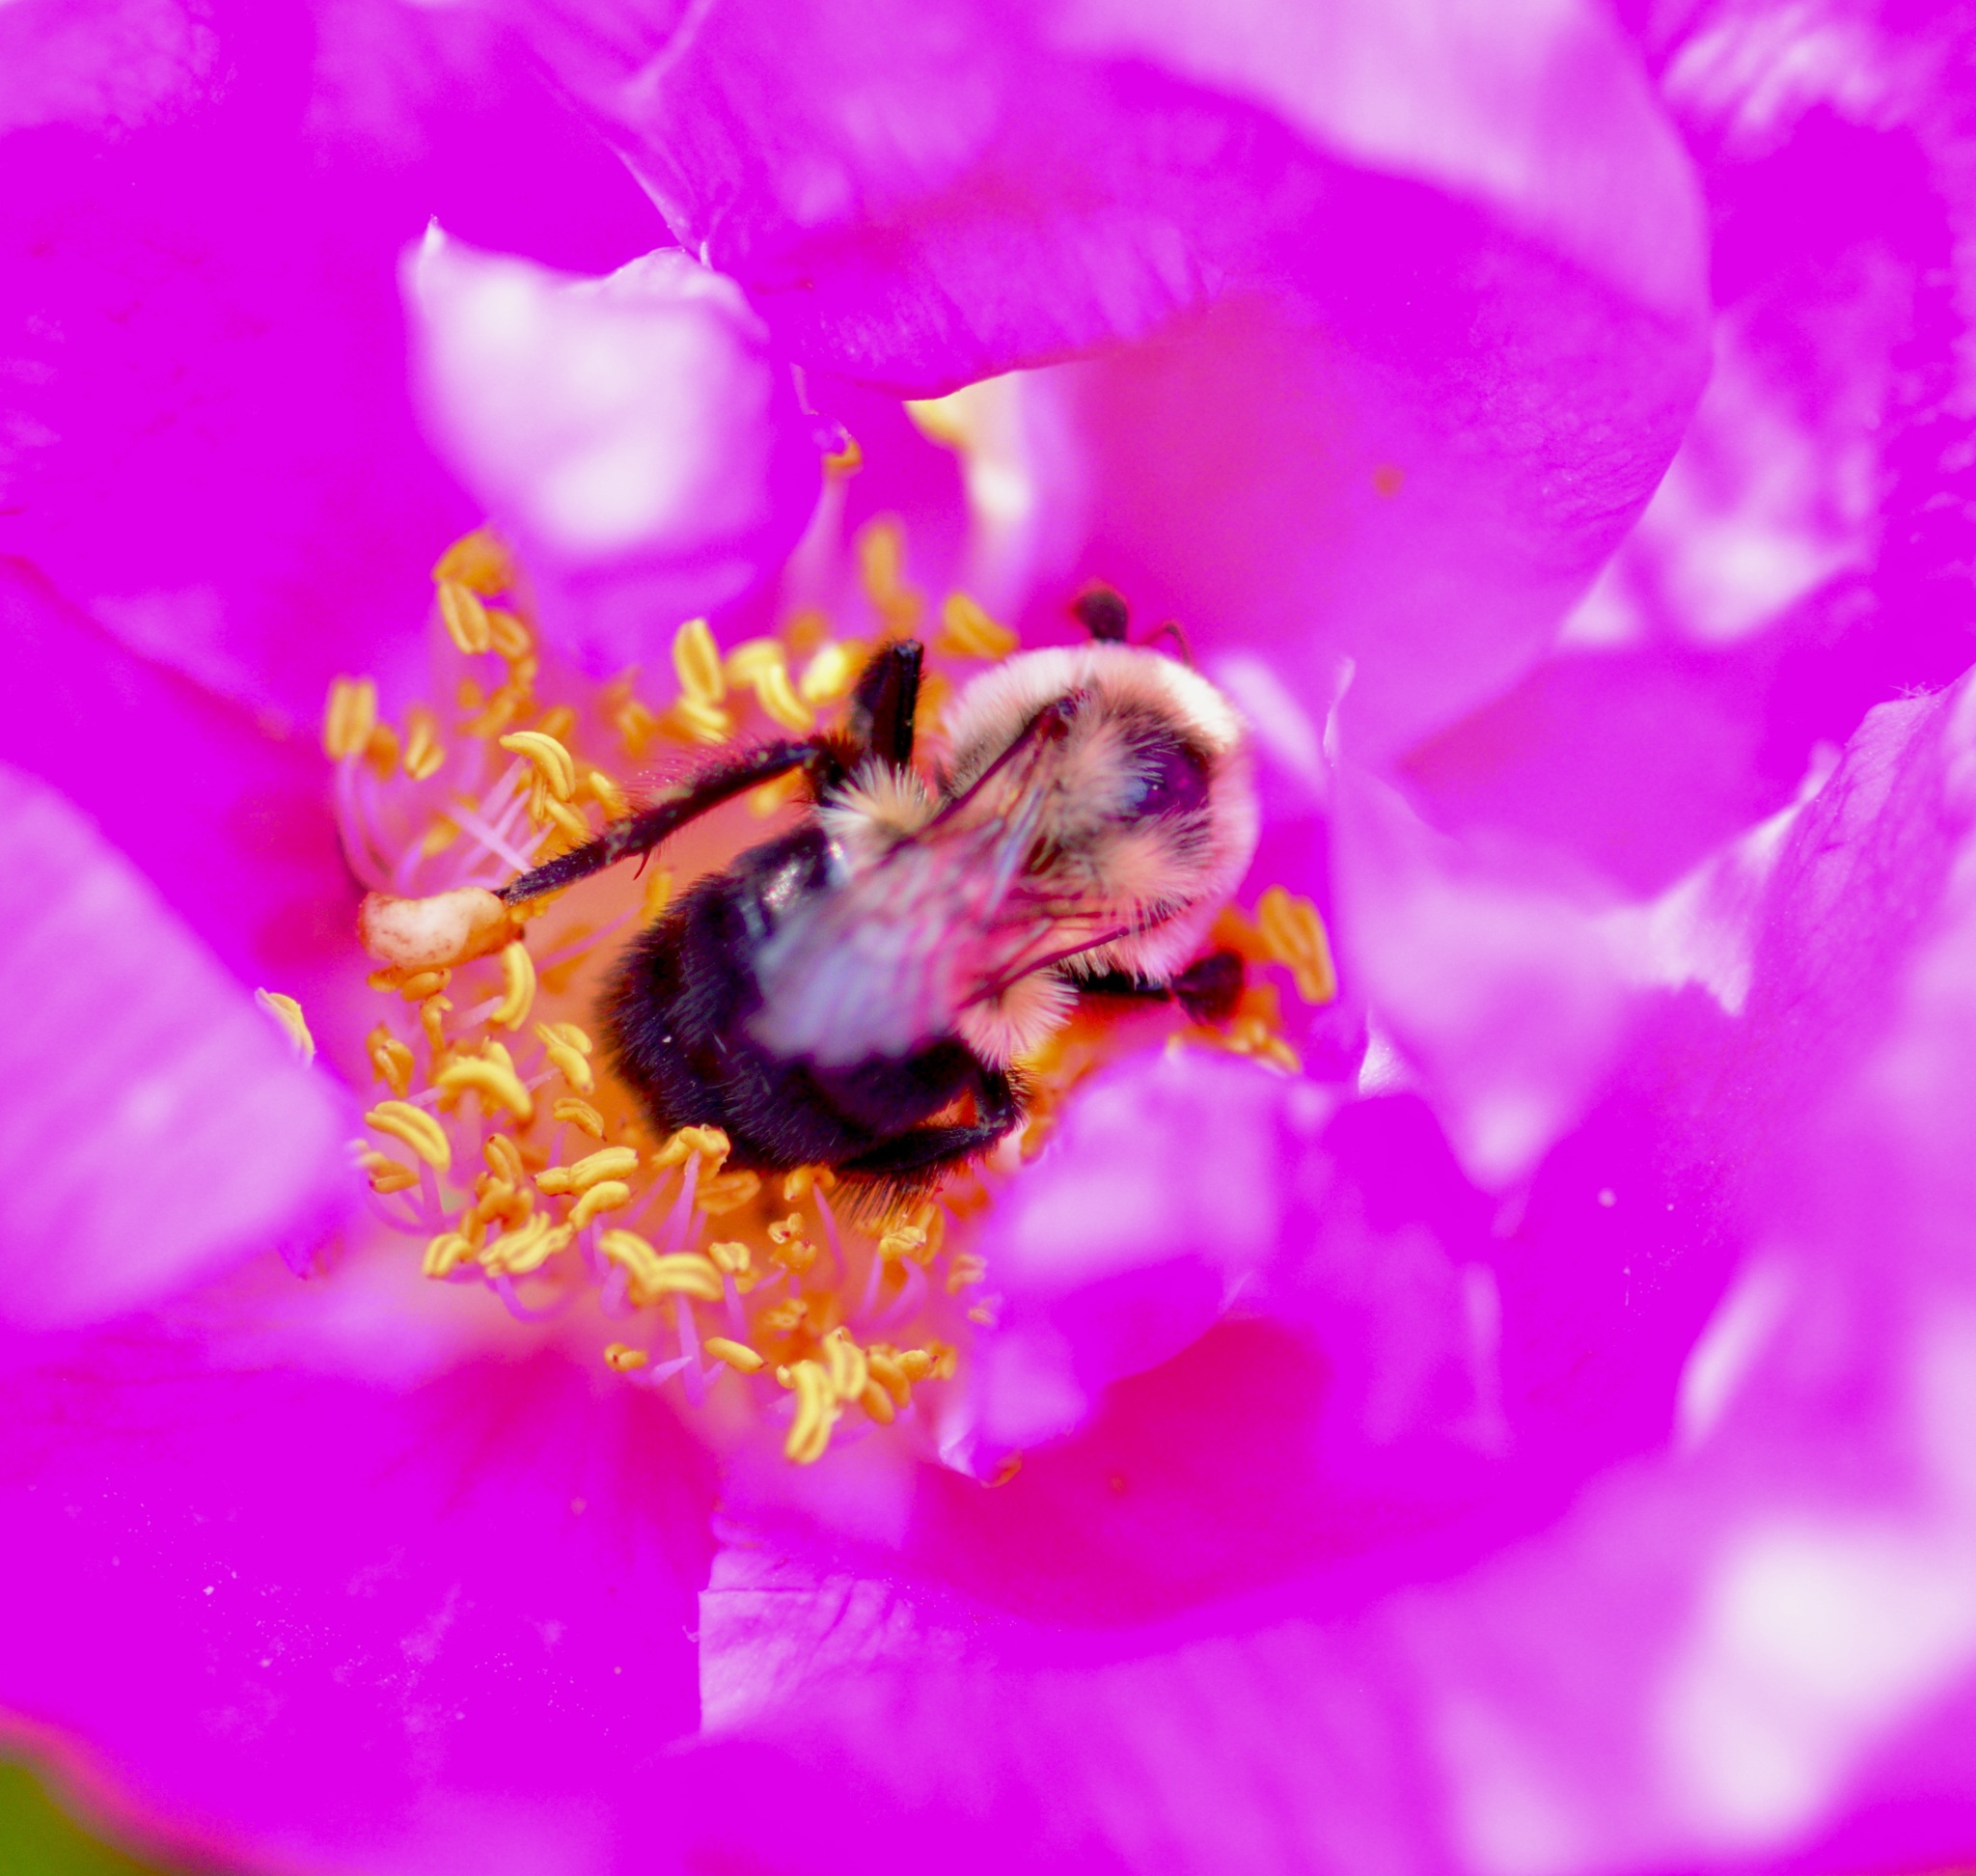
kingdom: Animalia
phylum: Arthropoda
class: Insecta
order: Hymenoptera
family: Apidae
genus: Bombus
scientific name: Bombus impatiens
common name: Common eastern bumble bee
